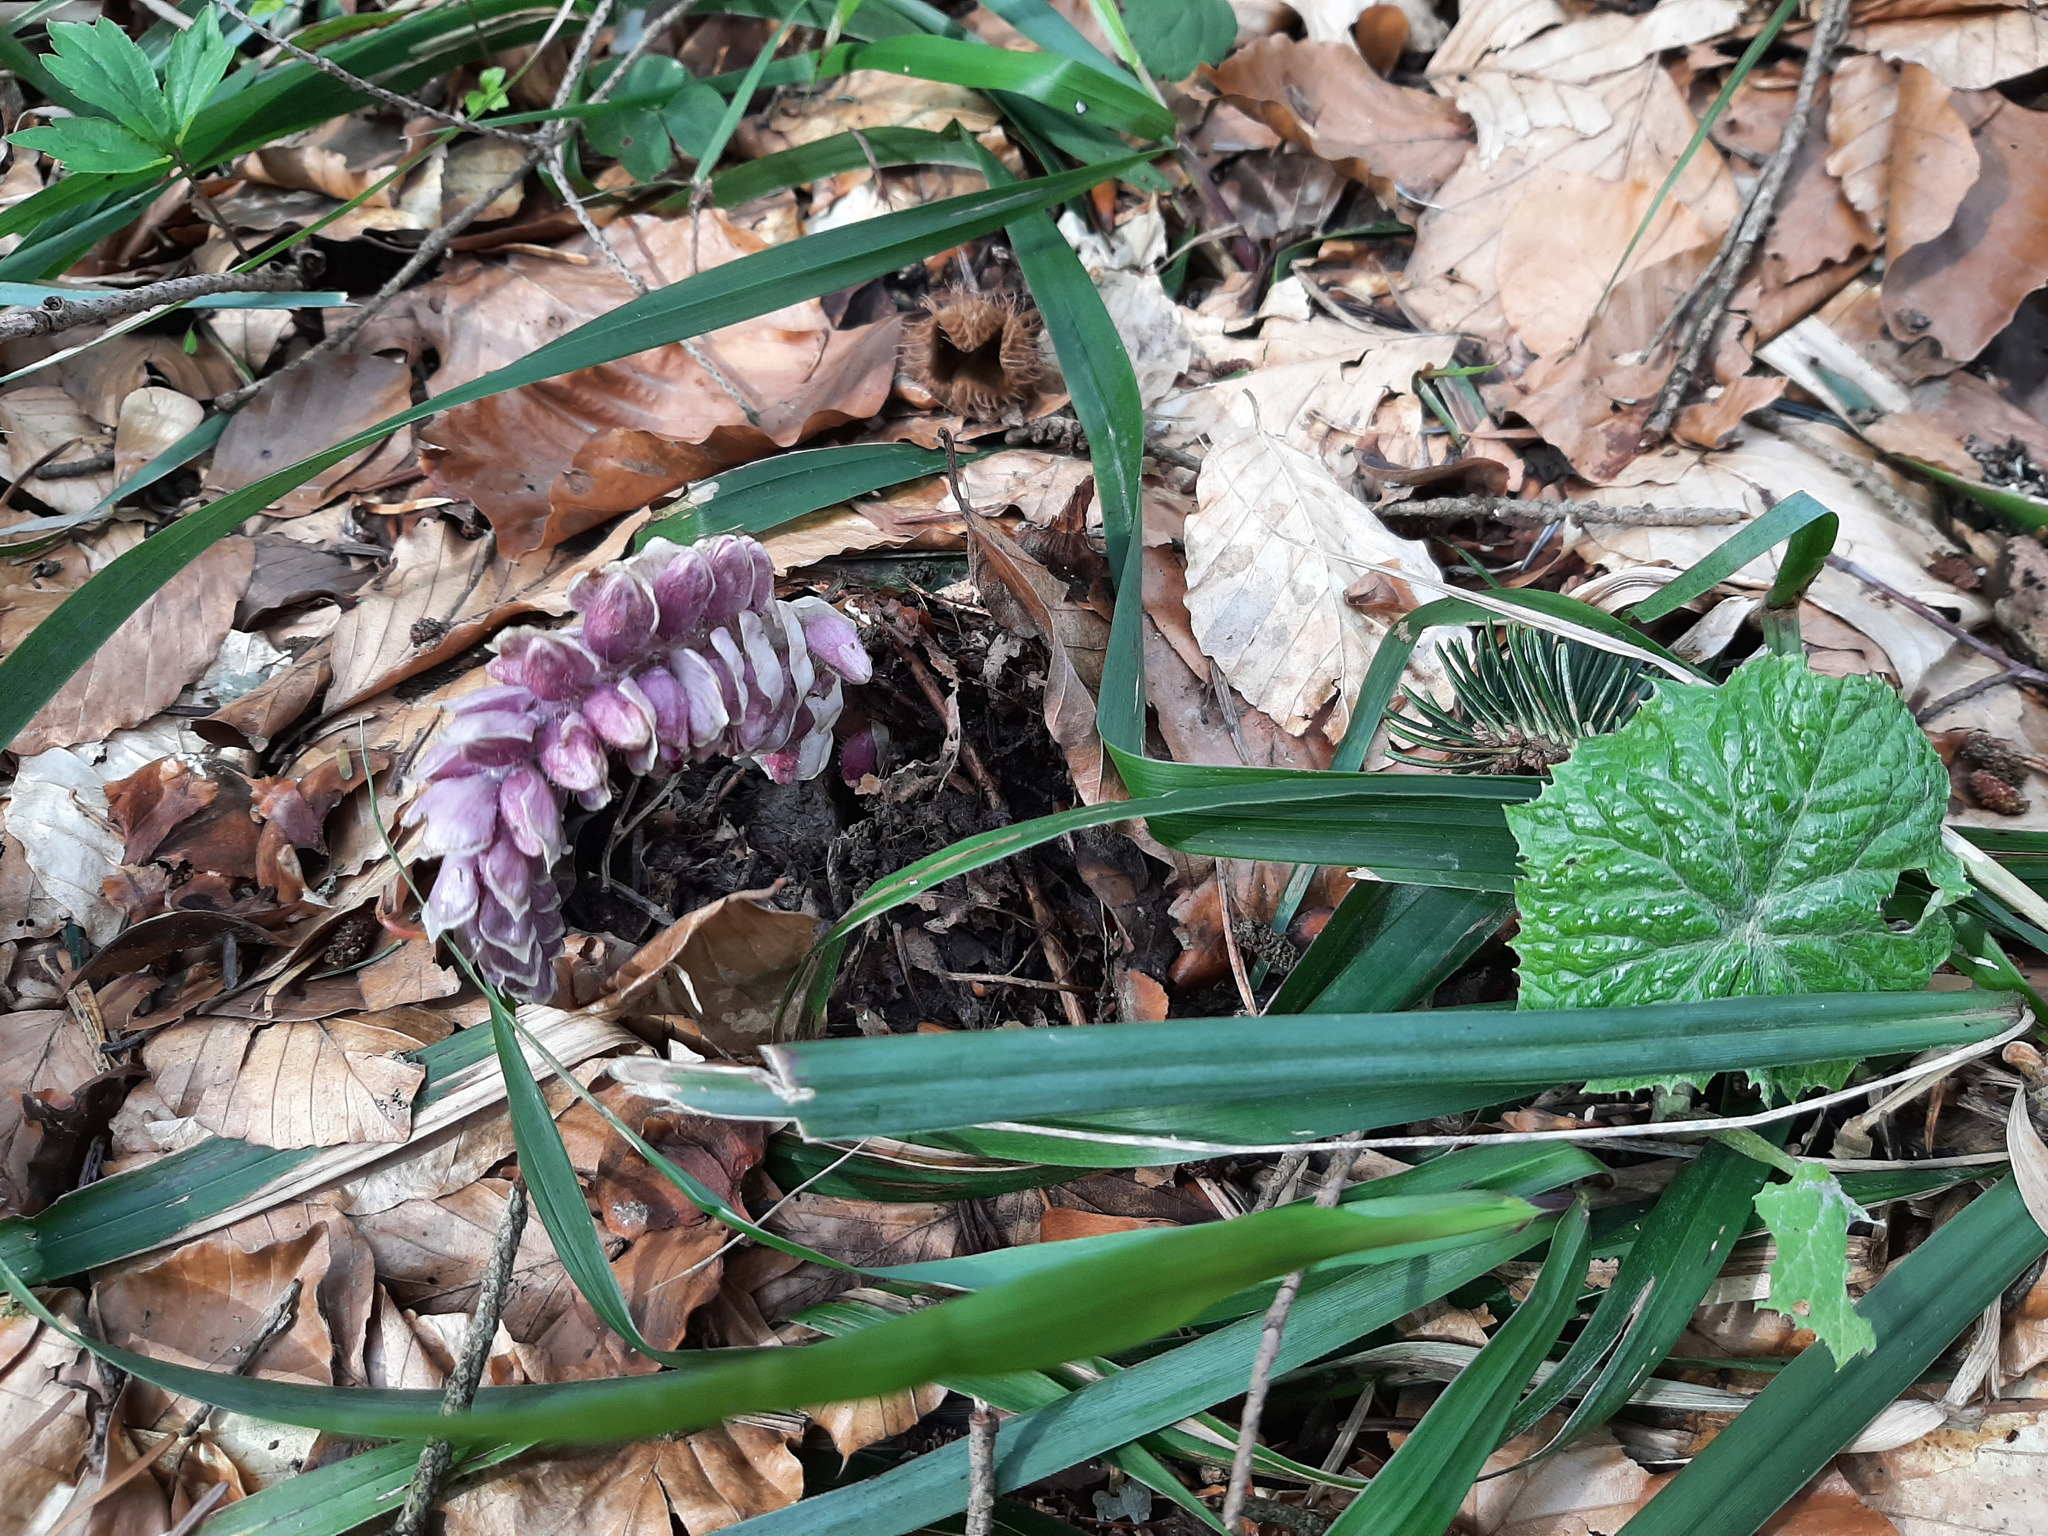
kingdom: Plantae
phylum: Tracheophyta
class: Magnoliopsida
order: Lamiales
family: Orobanchaceae
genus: Lathraea
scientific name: Lathraea squamaria
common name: Toothwort
